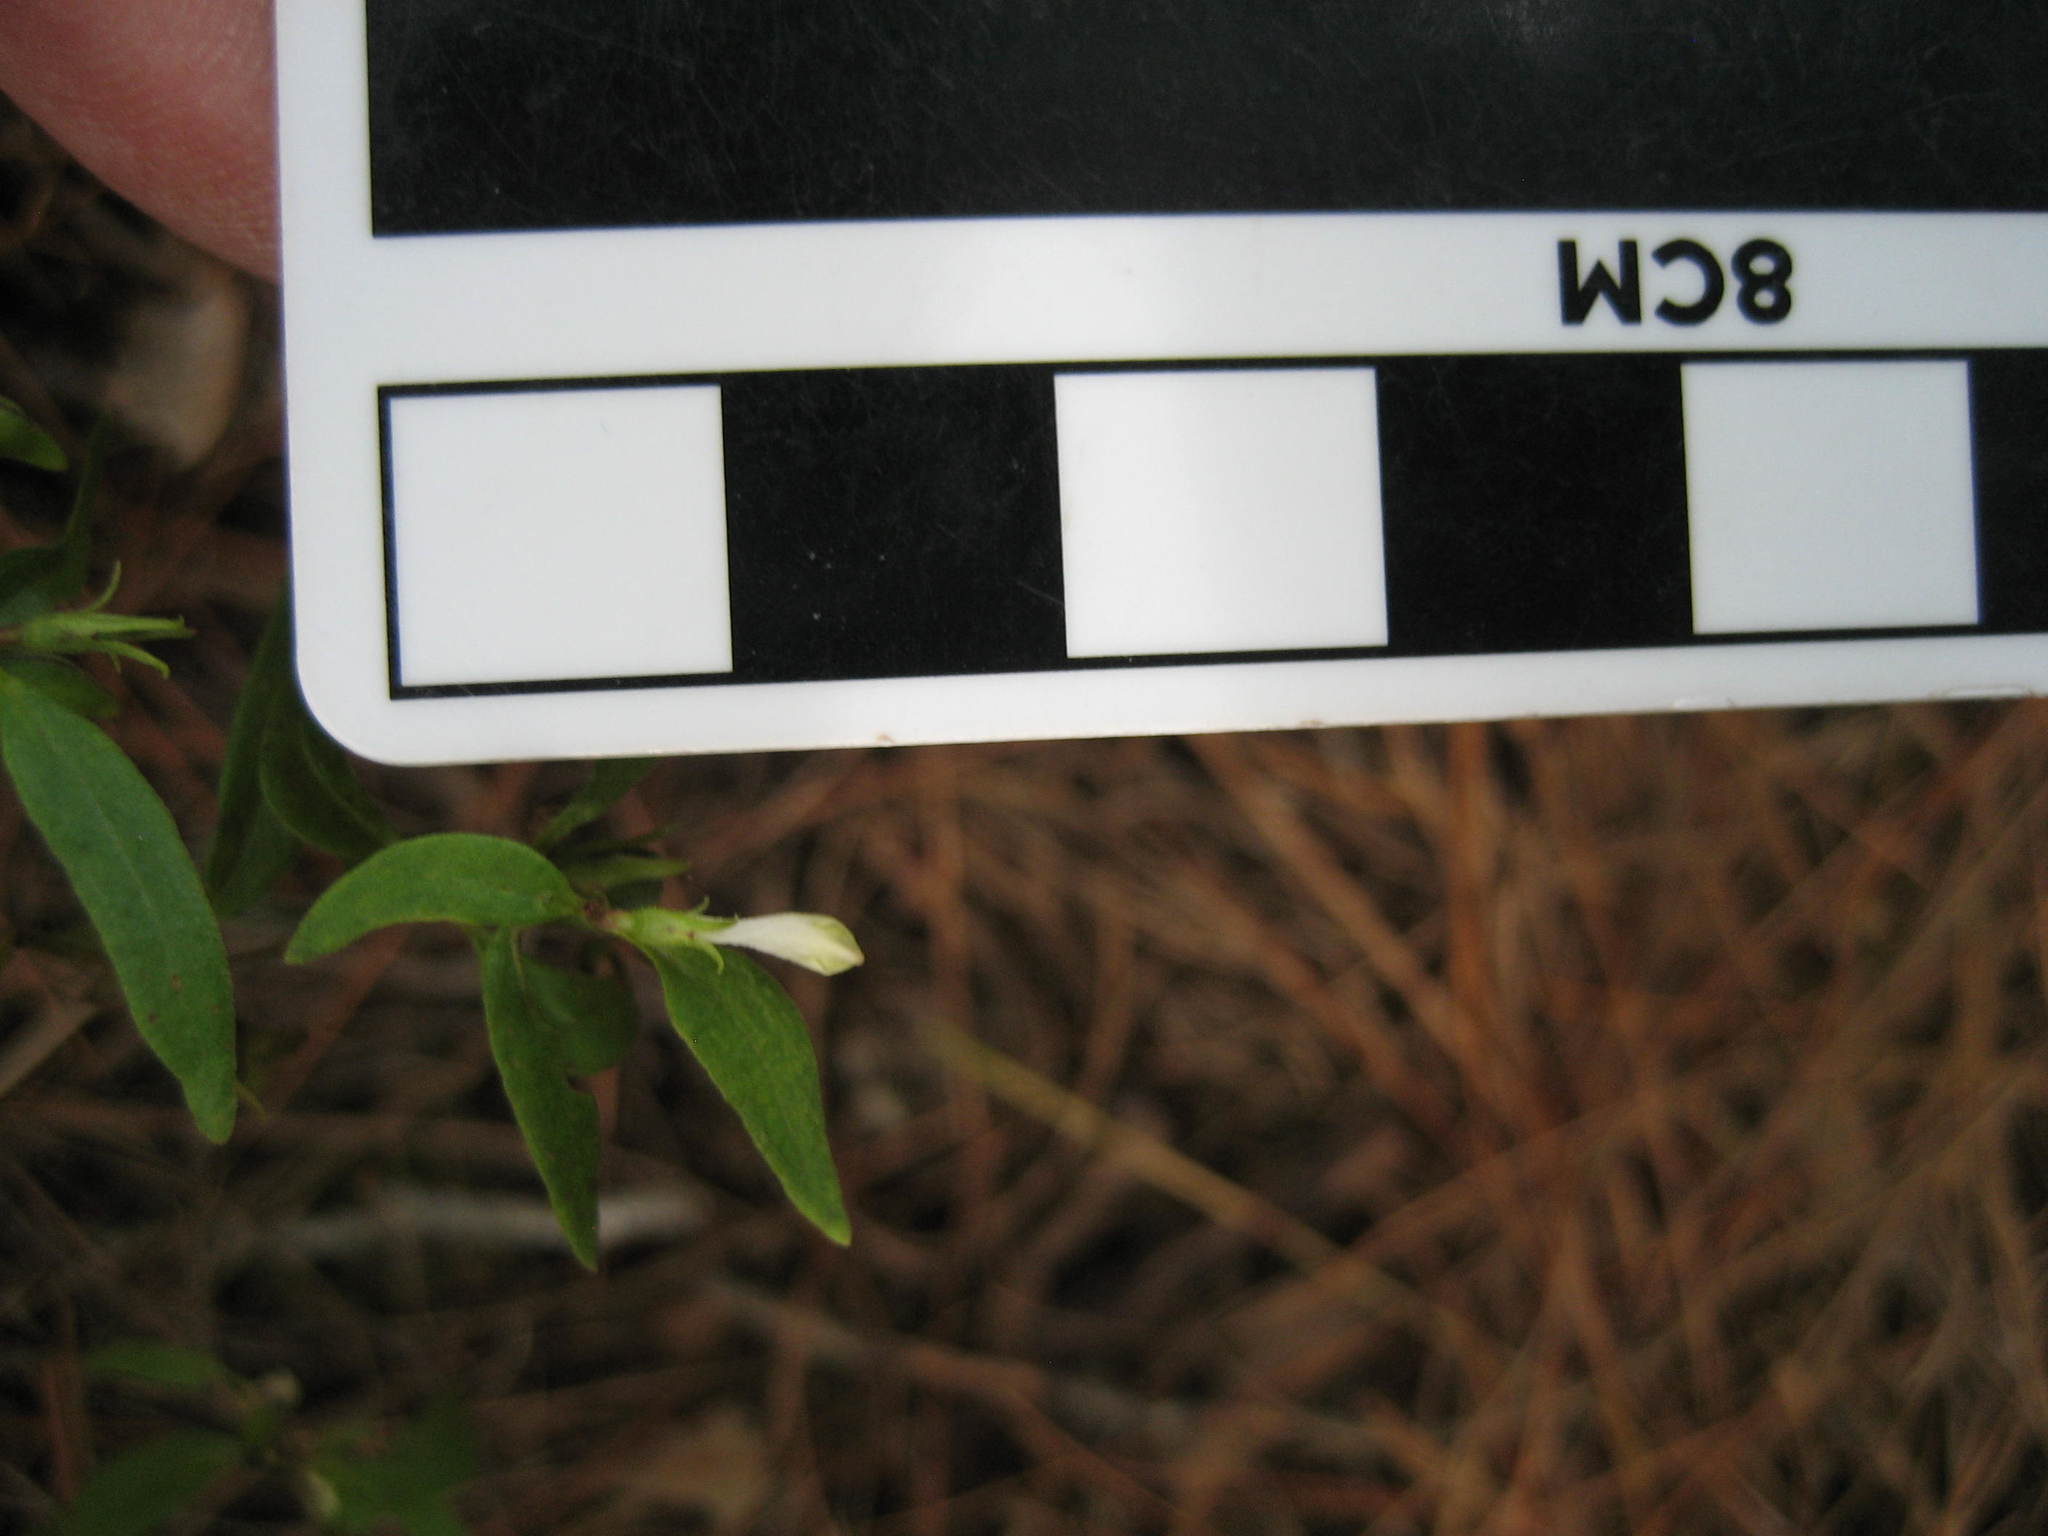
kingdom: Plantae
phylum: Tracheophyta
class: Magnoliopsida
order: Lamiales
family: Orobanchaceae
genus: Melampyrum
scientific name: Melampyrum lineare
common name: American cow-wheat
